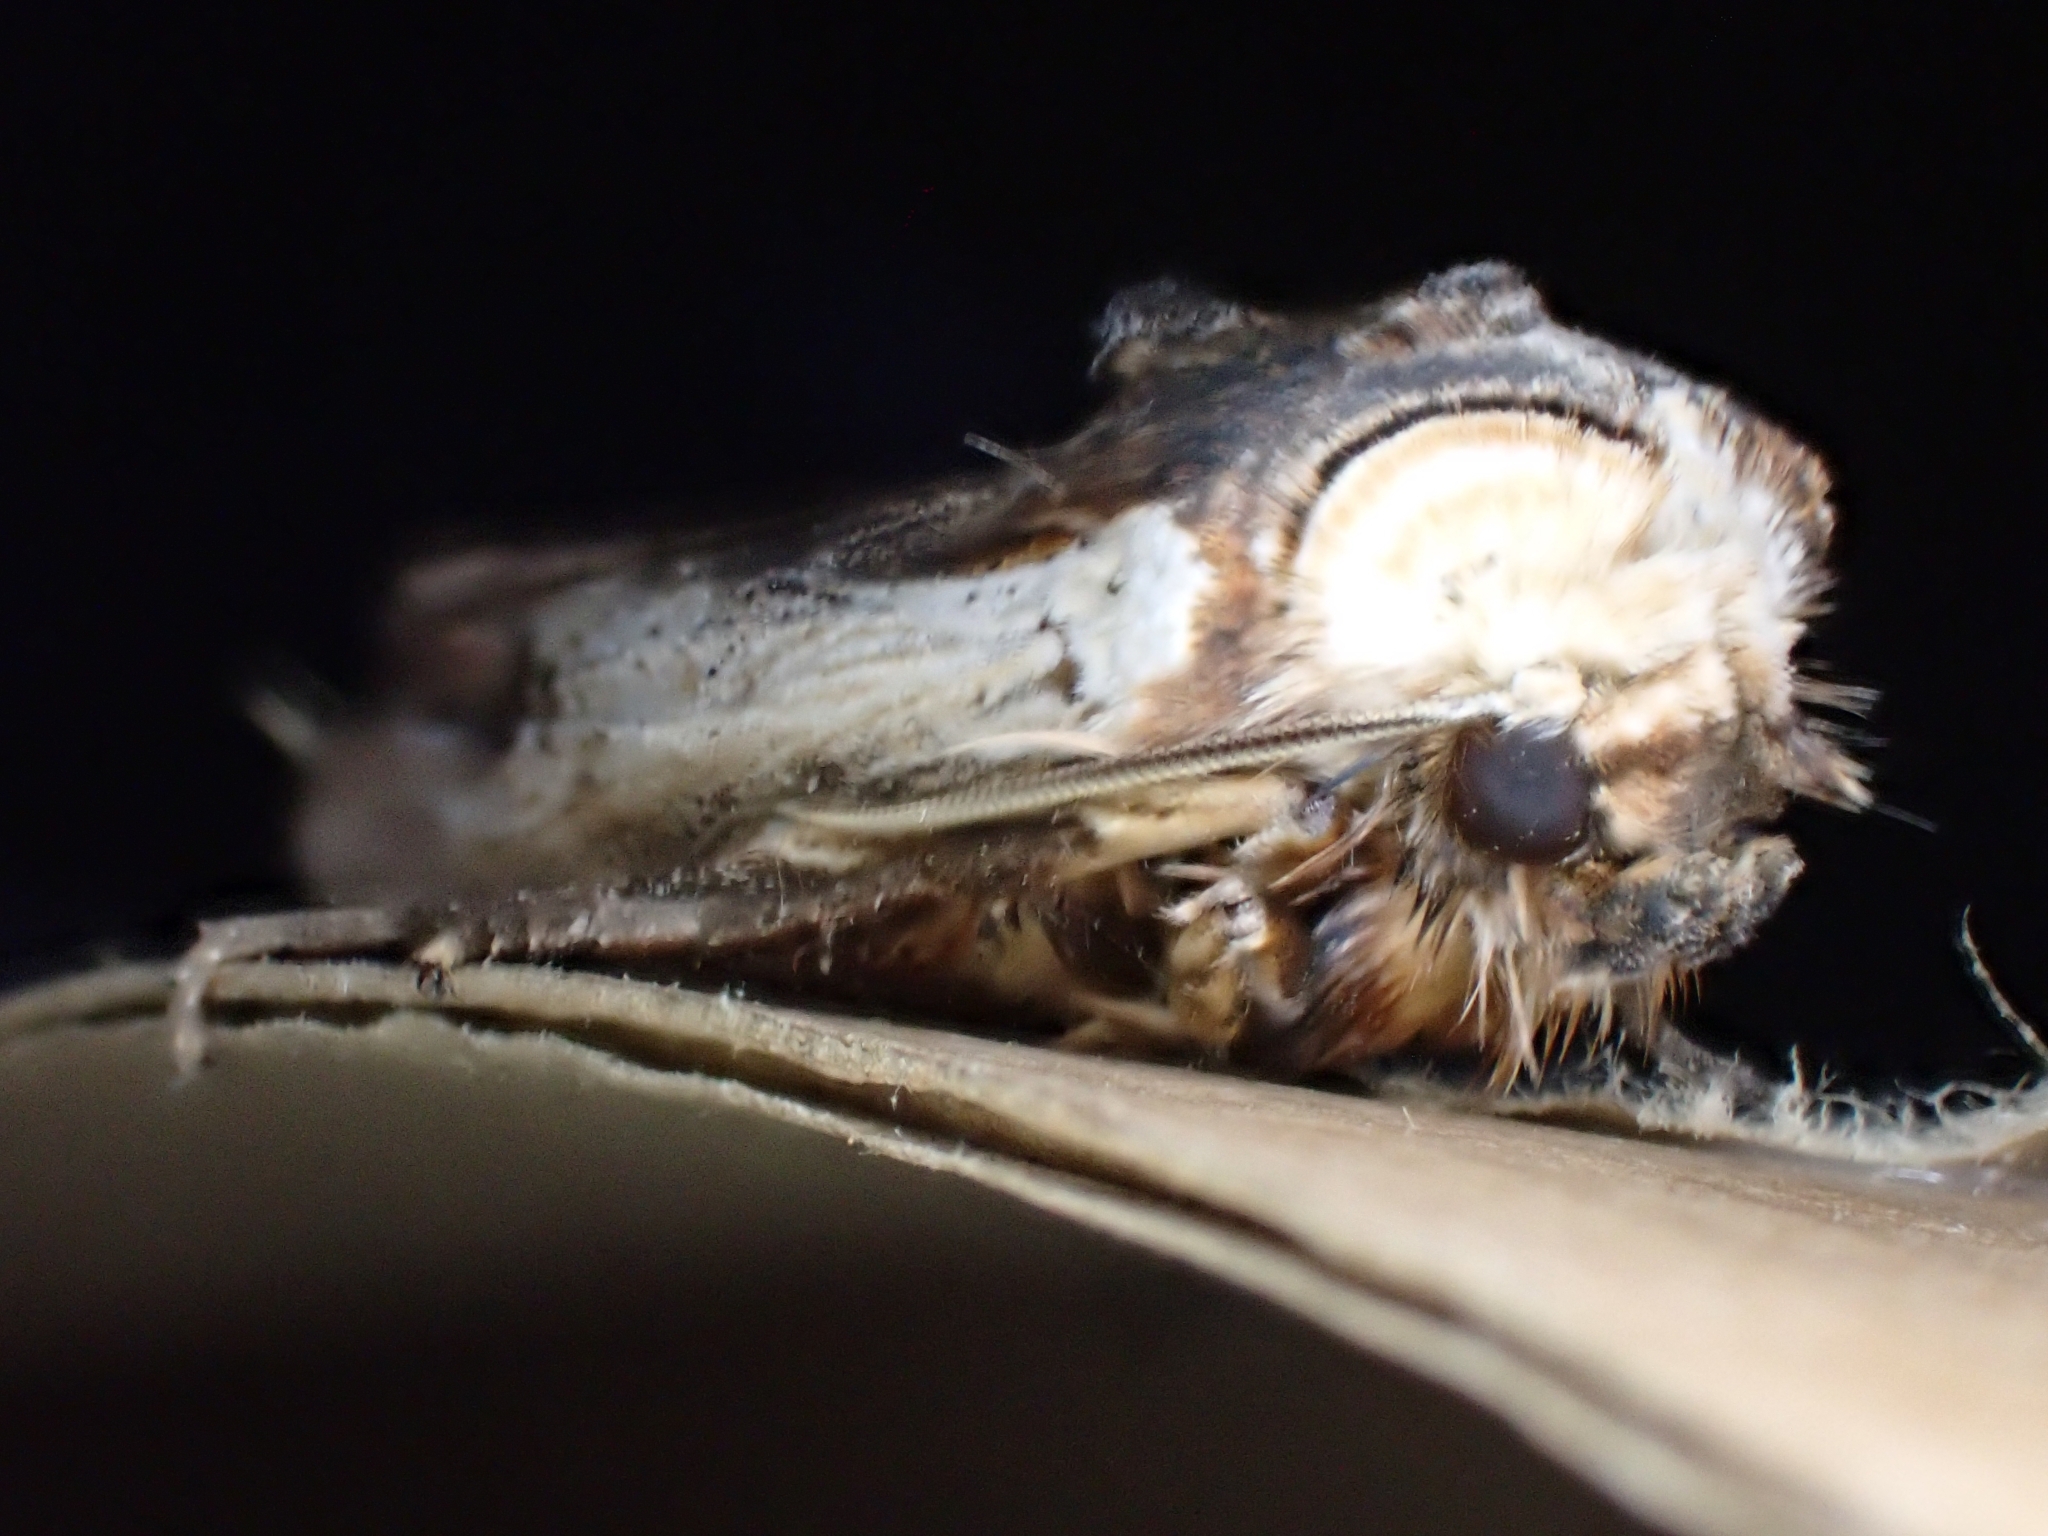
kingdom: Animalia
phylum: Arthropoda
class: Insecta
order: Lepidoptera
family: Noctuidae
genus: Xylena
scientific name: Xylena vetusta
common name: Red sword-grass
